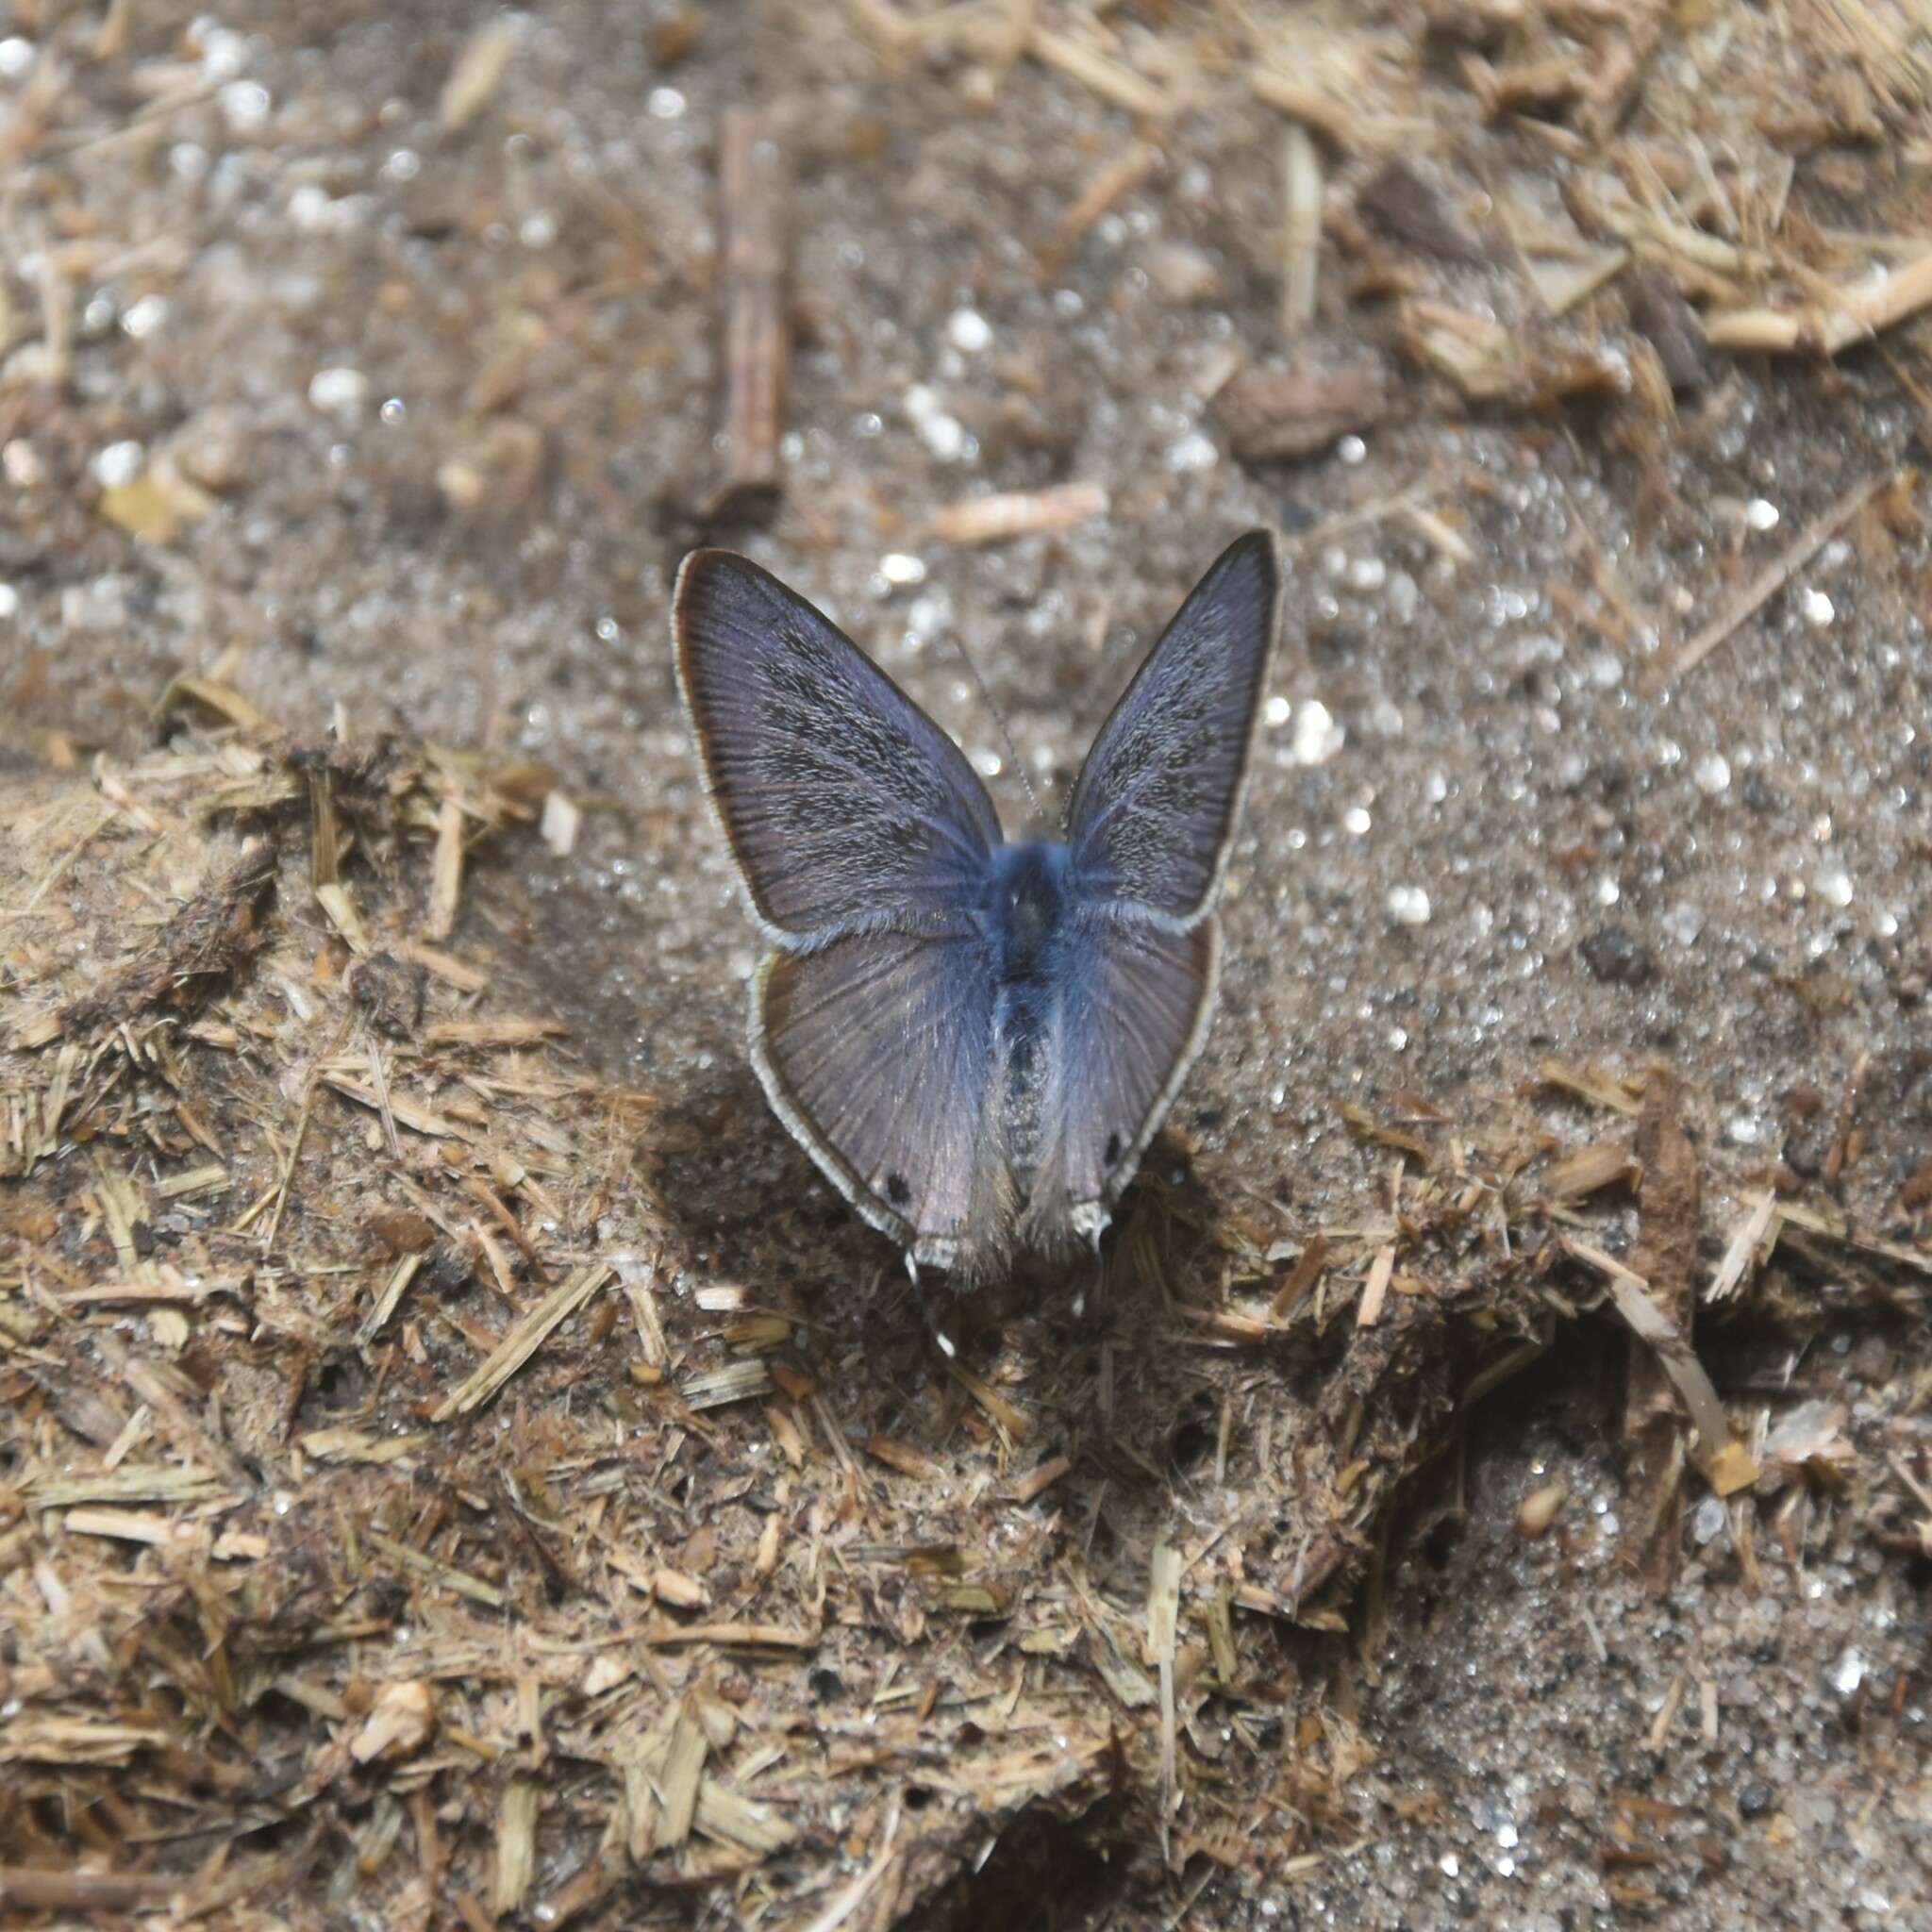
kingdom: Animalia
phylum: Arthropoda
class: Insecta
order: Lepidoptera
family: Lycaenidae
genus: Lampides
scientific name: Lampides boeticus
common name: Long-tailed blue
